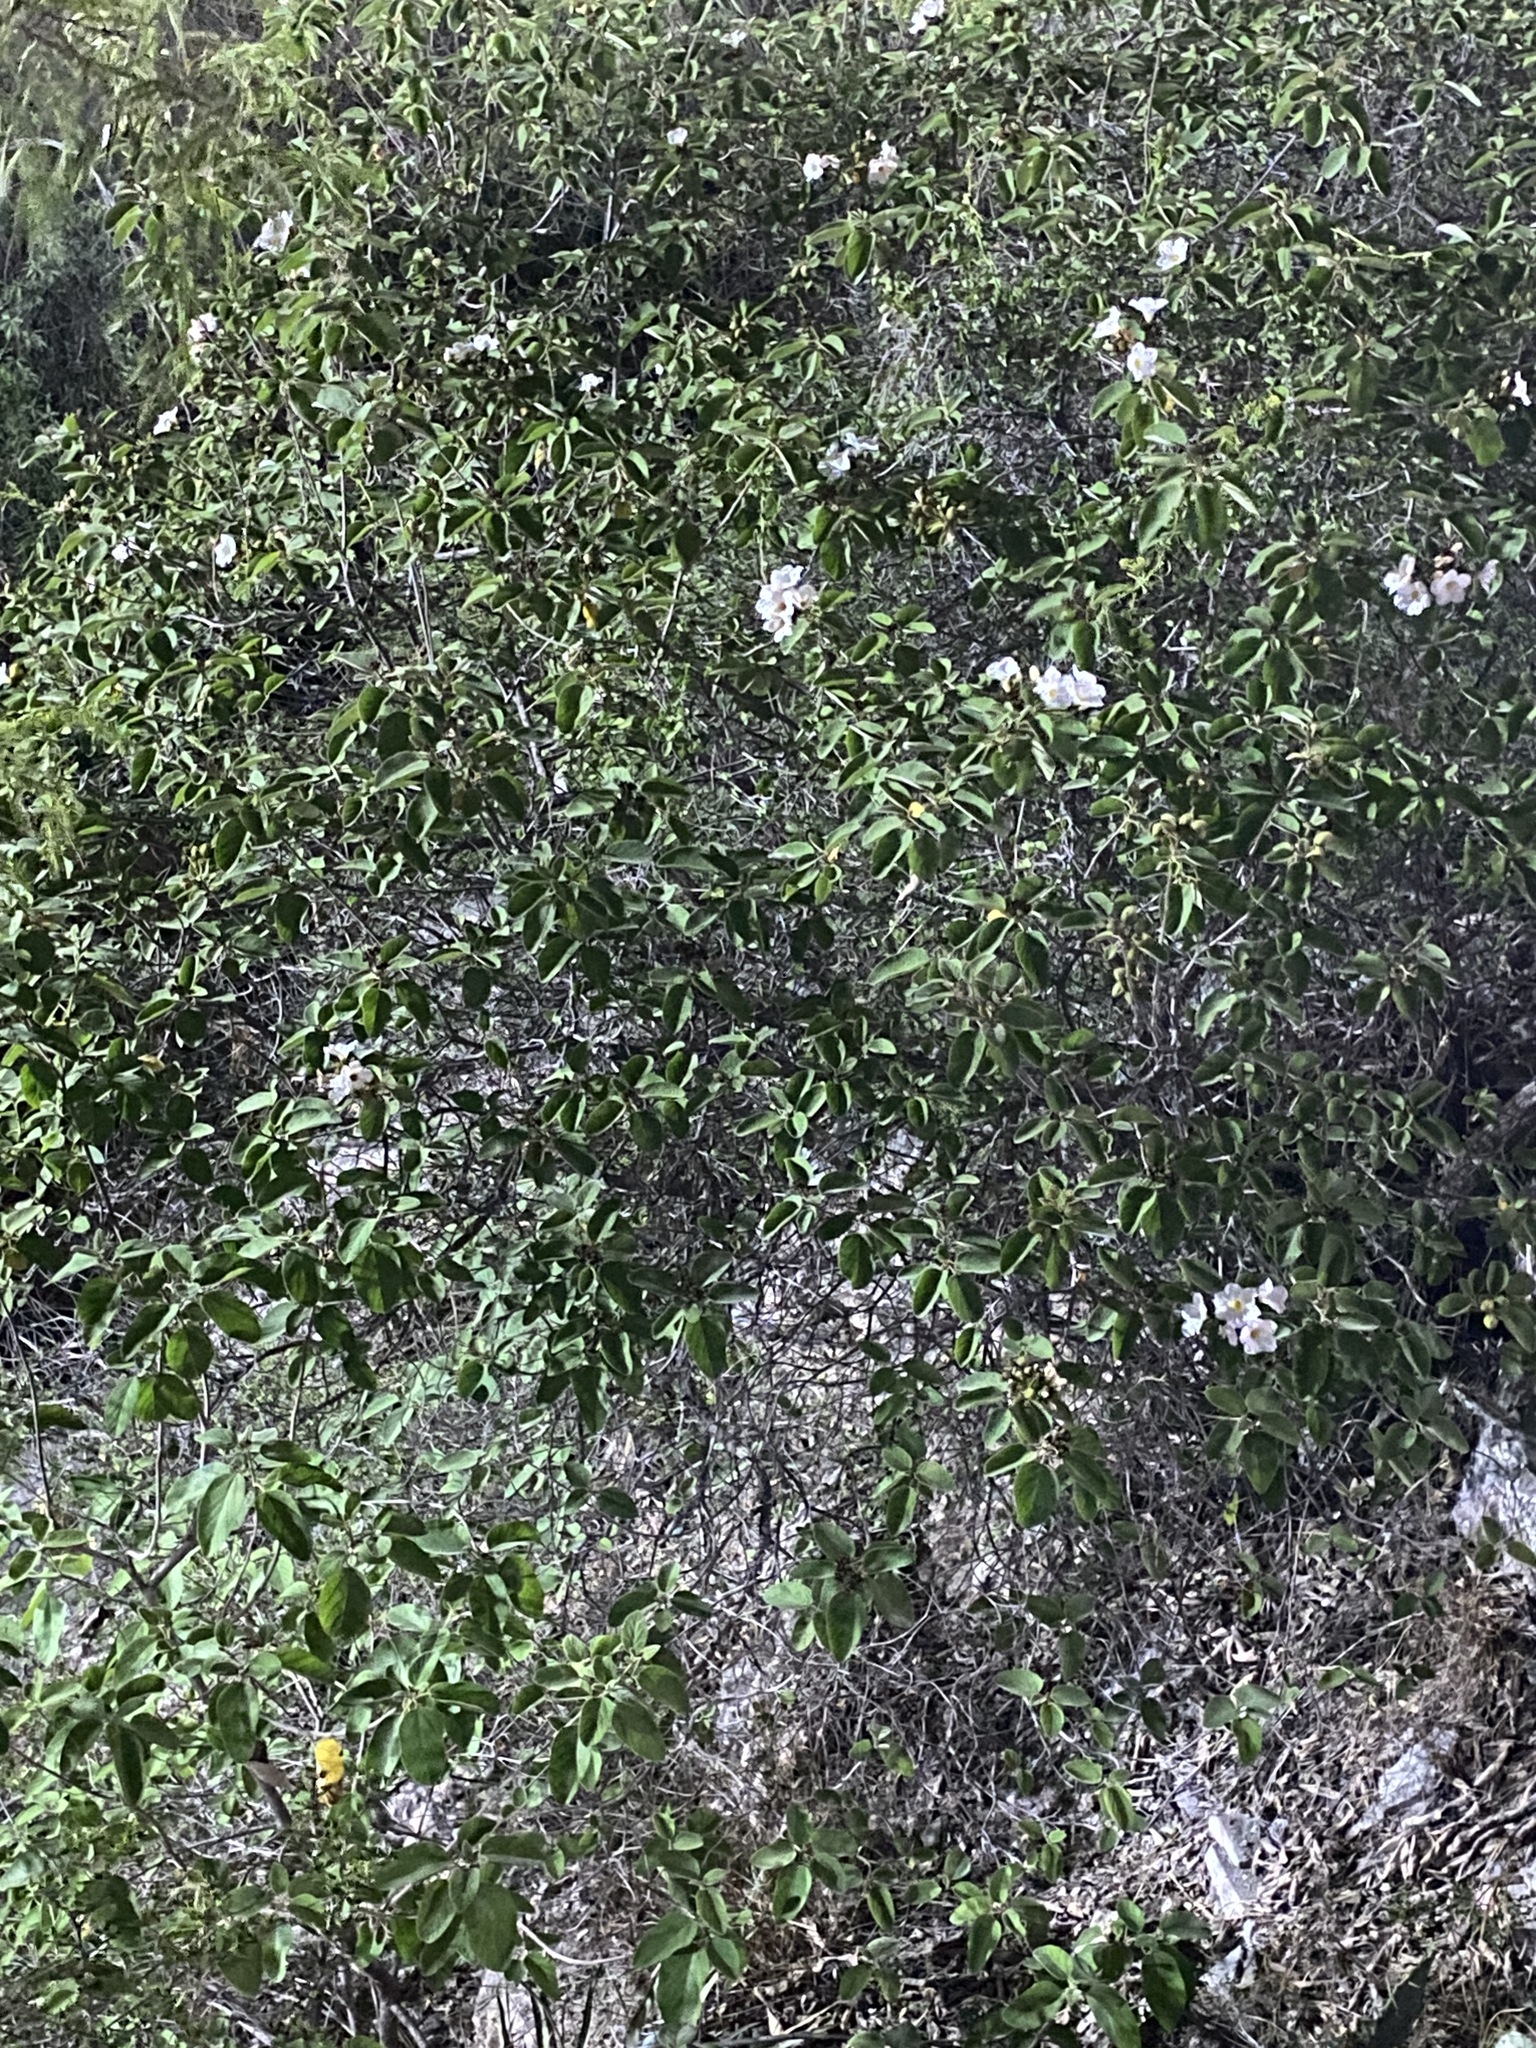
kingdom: Plantae
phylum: Tracheophyta
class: Magnoliopsida
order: Boraginales
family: Cordiaceae
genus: Cordia
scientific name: Cordia boissieri
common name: Mexican-olive
